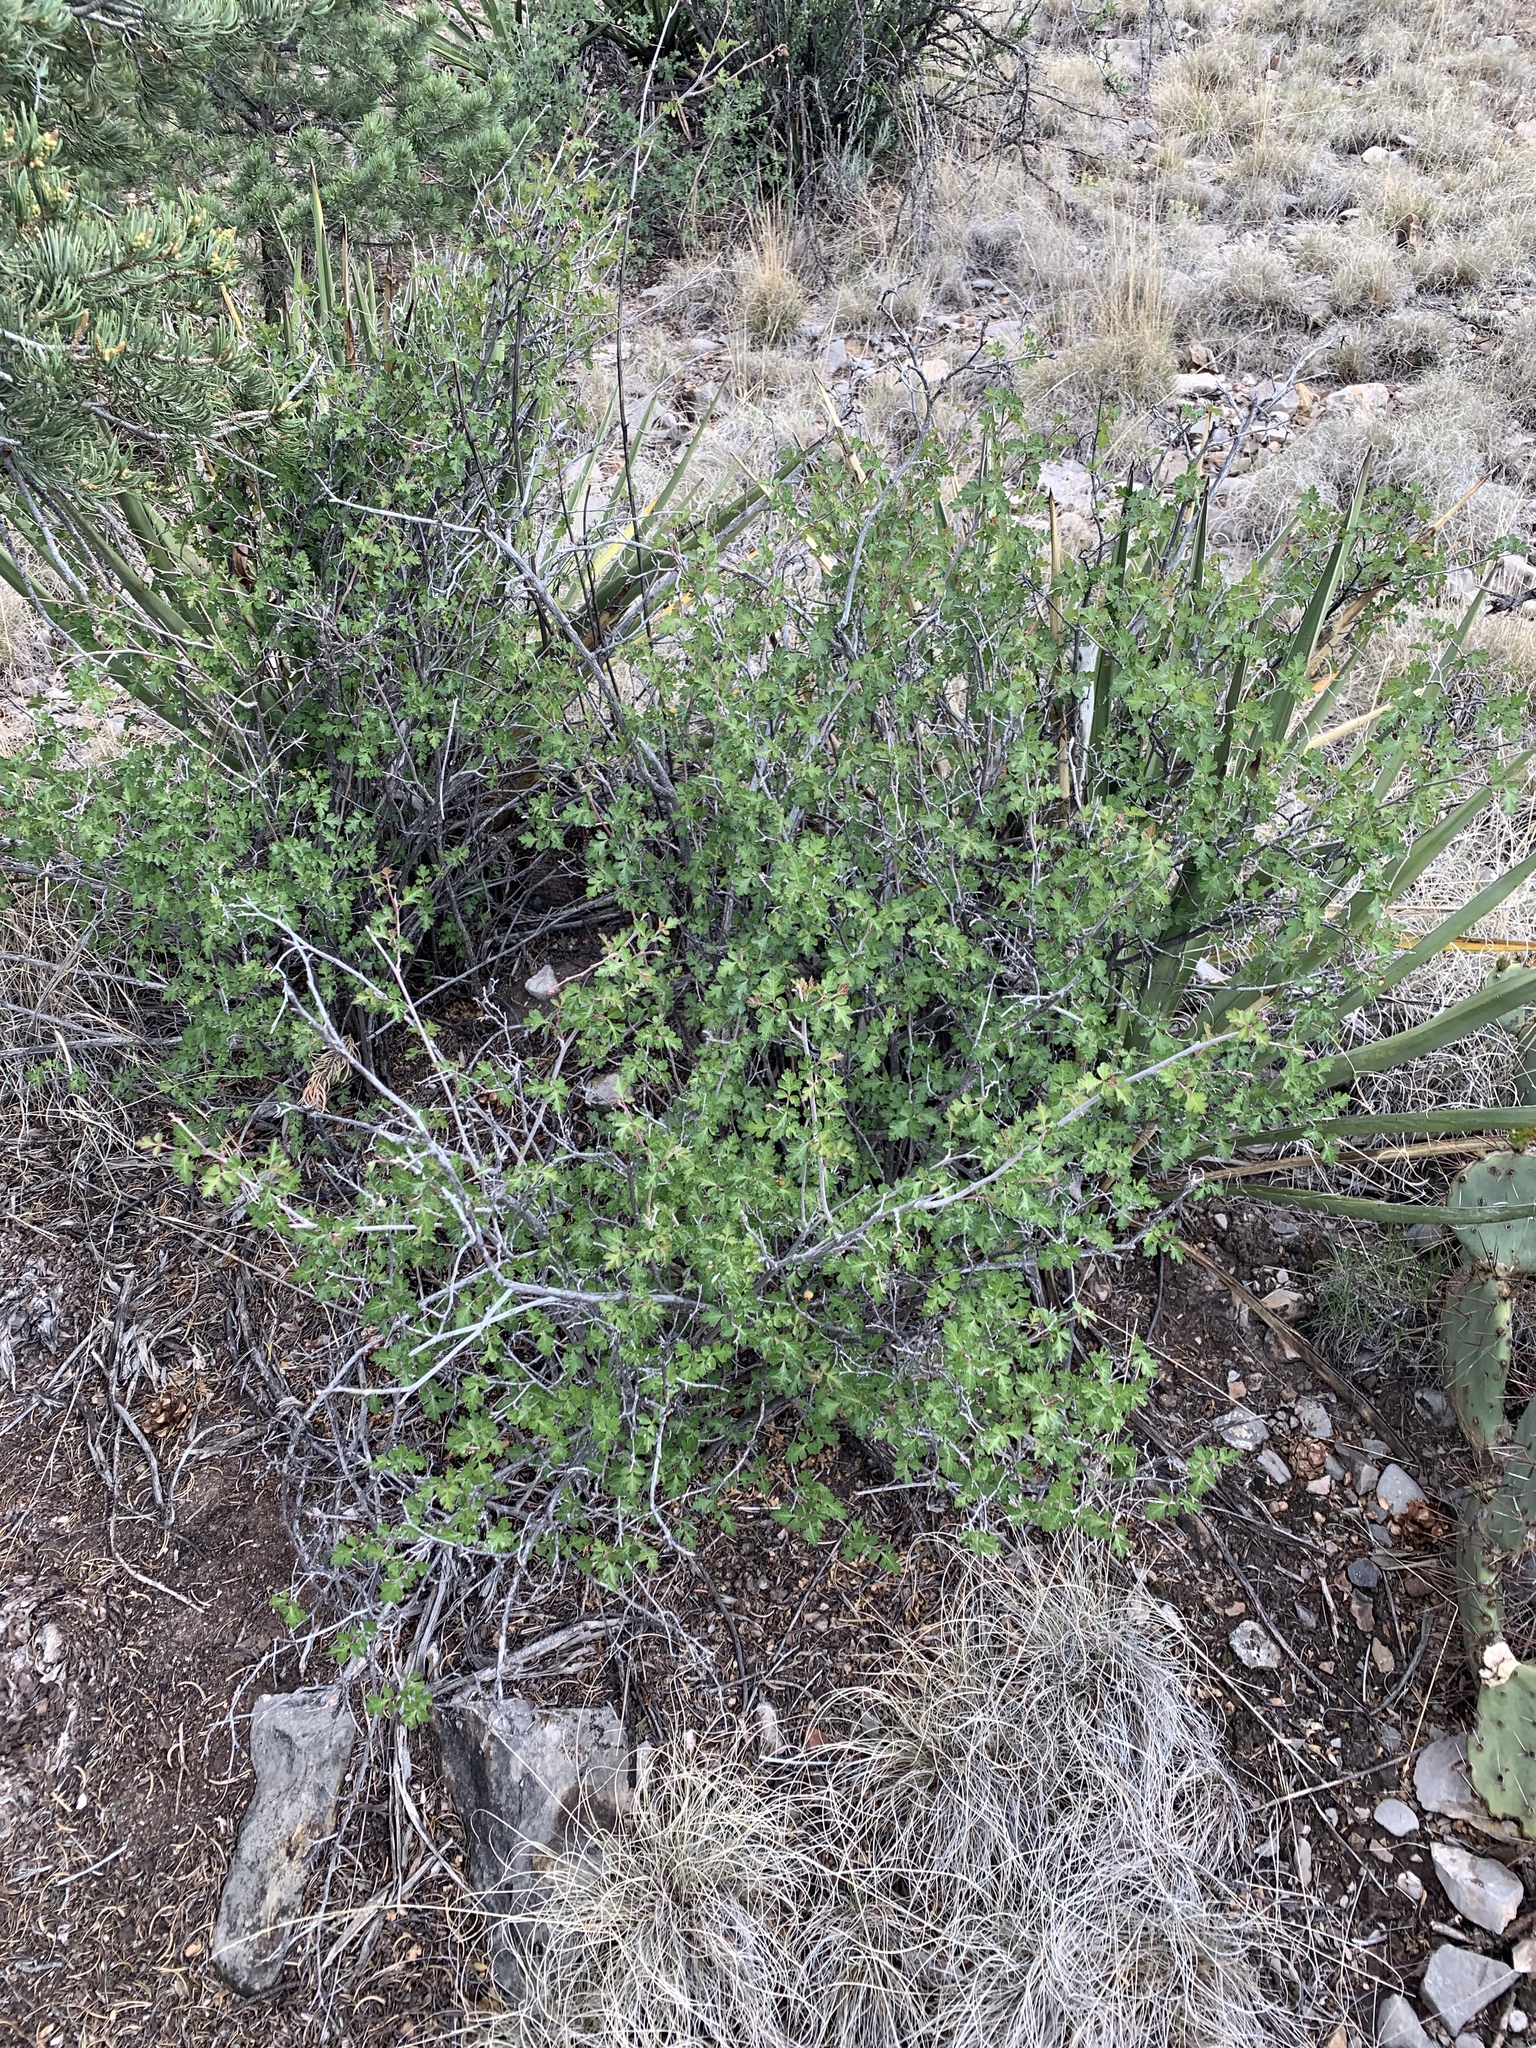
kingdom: Plantae
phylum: Tracheophyta
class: Magnoliopsida
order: Sapindales
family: Anacardiaceae
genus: Rhus
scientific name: Rhus aromatica
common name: Aromatic sumac
